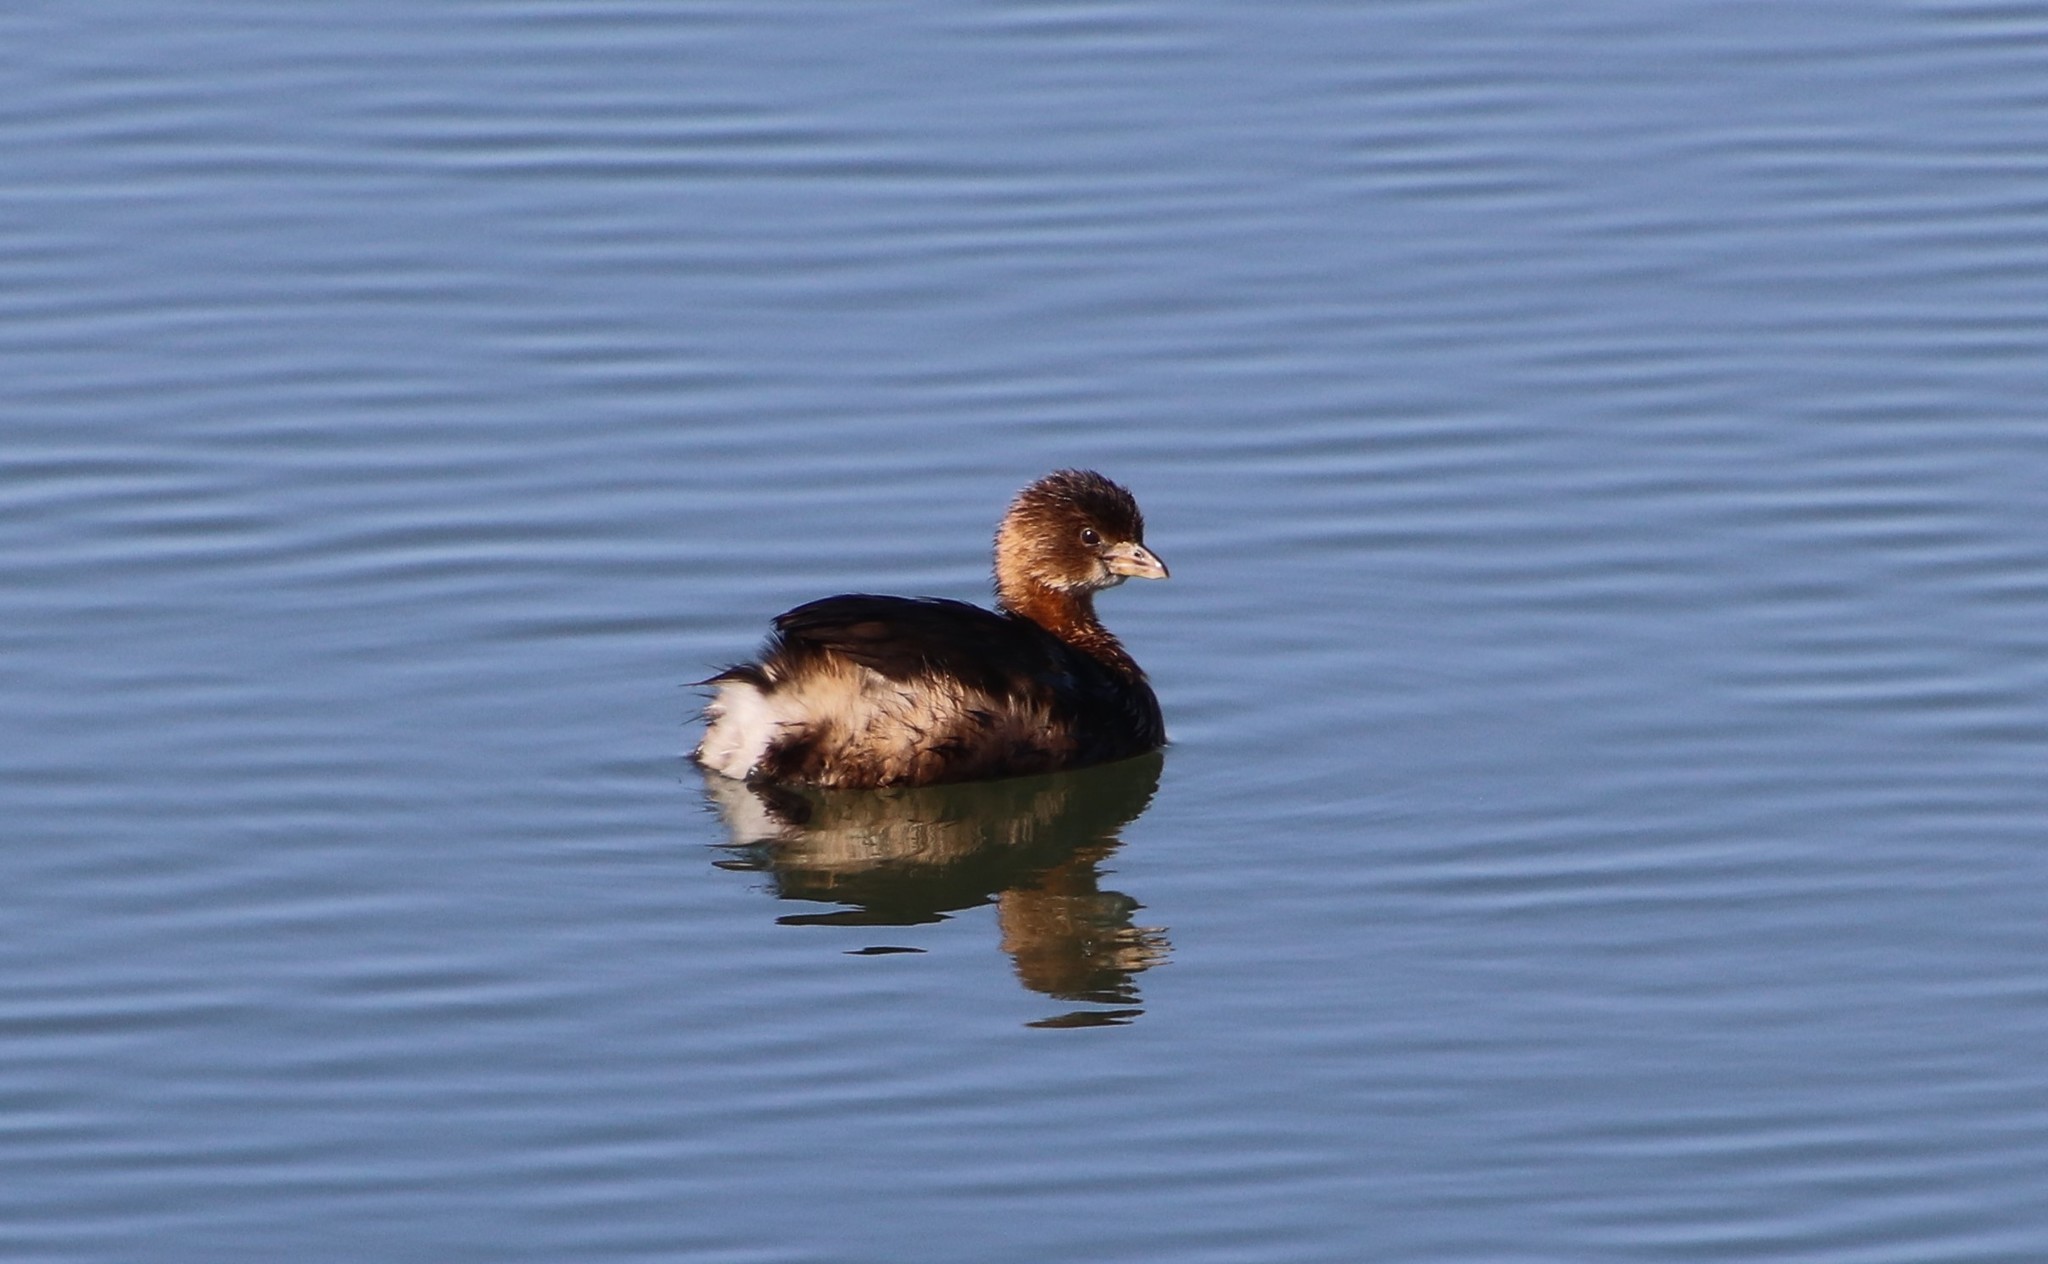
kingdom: Animalia
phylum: Chordata
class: Aves
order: Podicipediformes
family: Podicipedidae
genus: Podilymbus
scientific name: Podilymbus podiceps
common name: Pied-billed grebe
